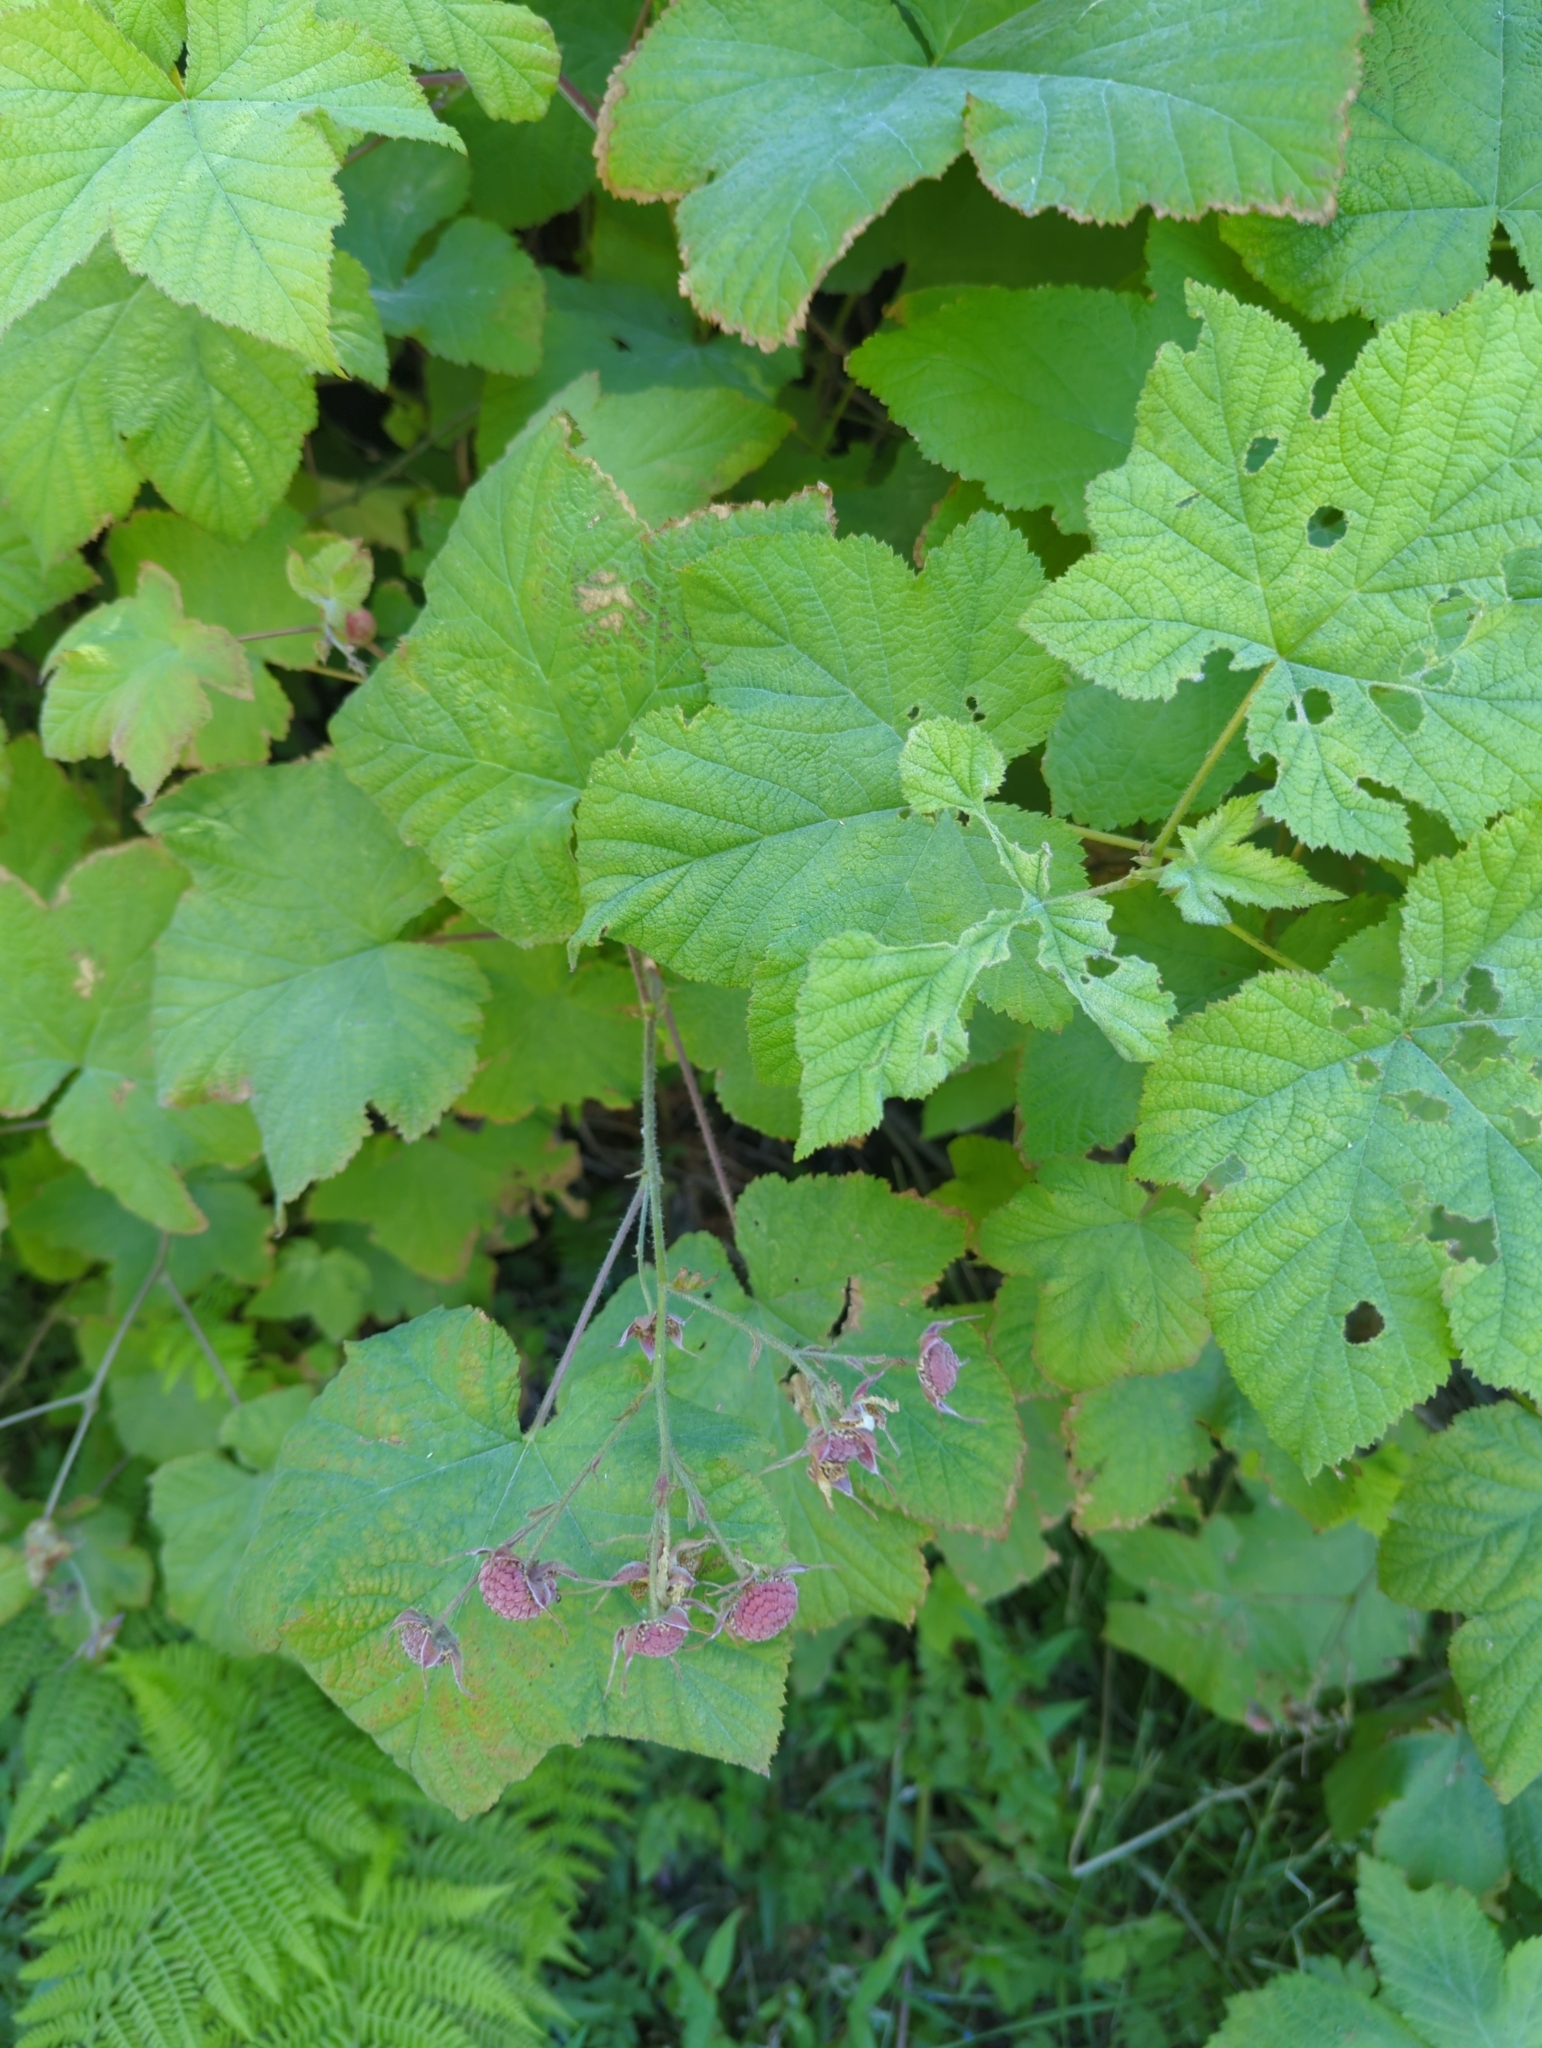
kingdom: Plantae
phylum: Tracheophyta
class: Magnoliopsida
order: Rosales
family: Rosaceae
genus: Rubus
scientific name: Rubus parviflorus
